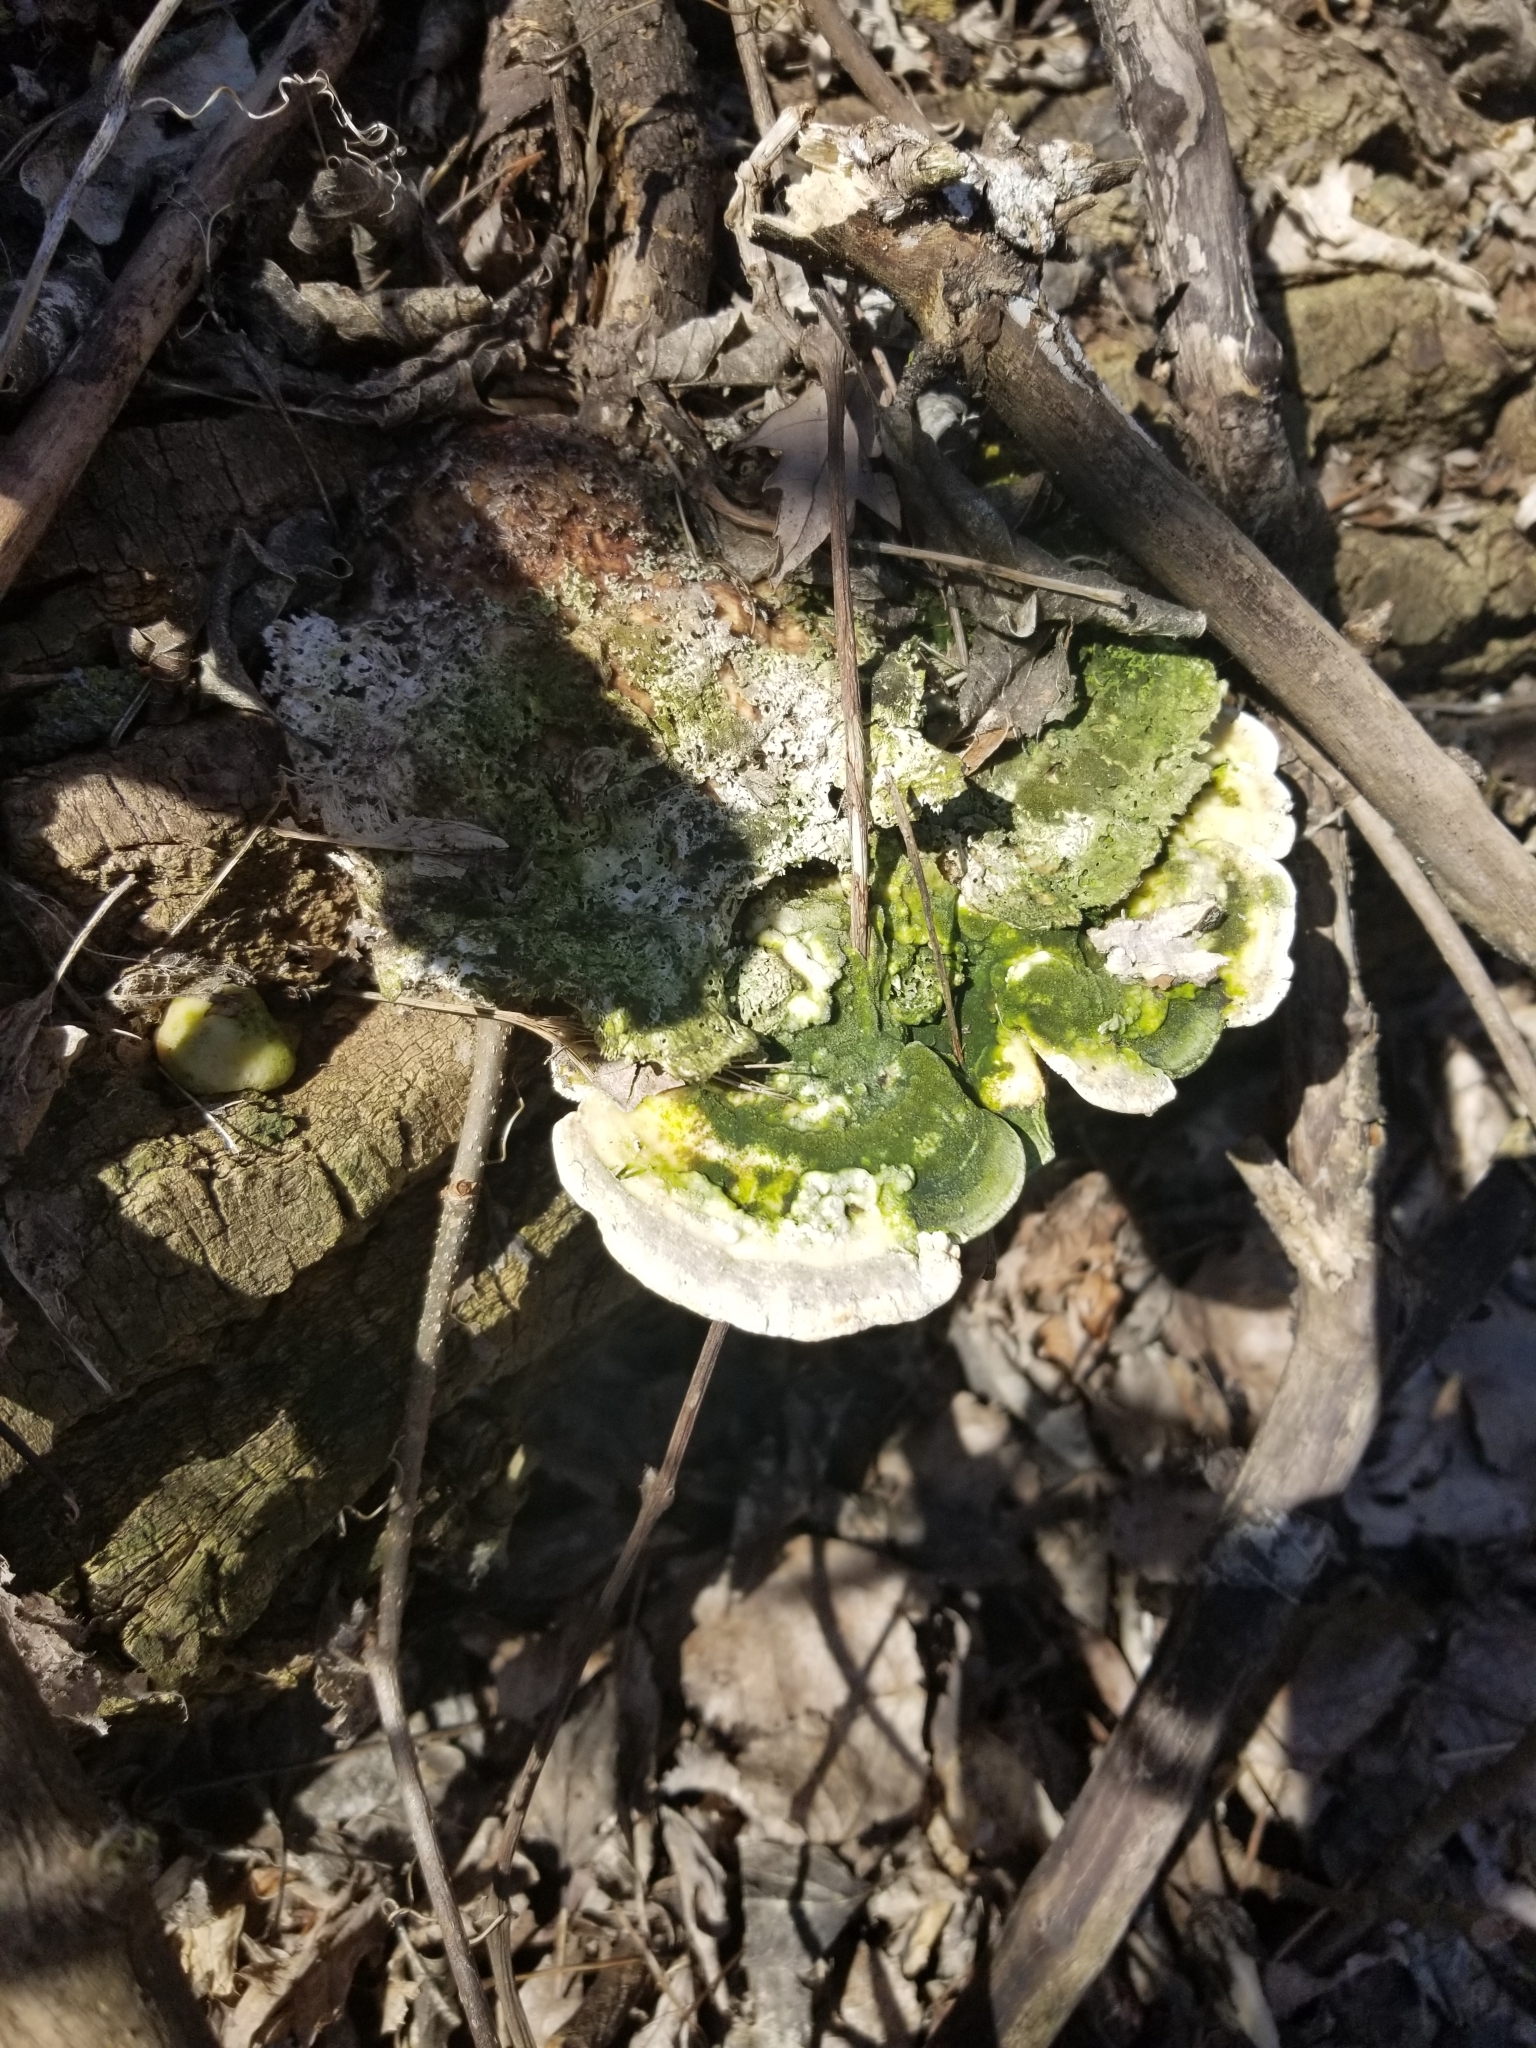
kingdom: Fungi
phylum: Basidiomycota
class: Agaricomycetes
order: Polyporales
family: Polyporaceae
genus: Trametes
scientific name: Trametes gibbosa
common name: Lumpy bracket
